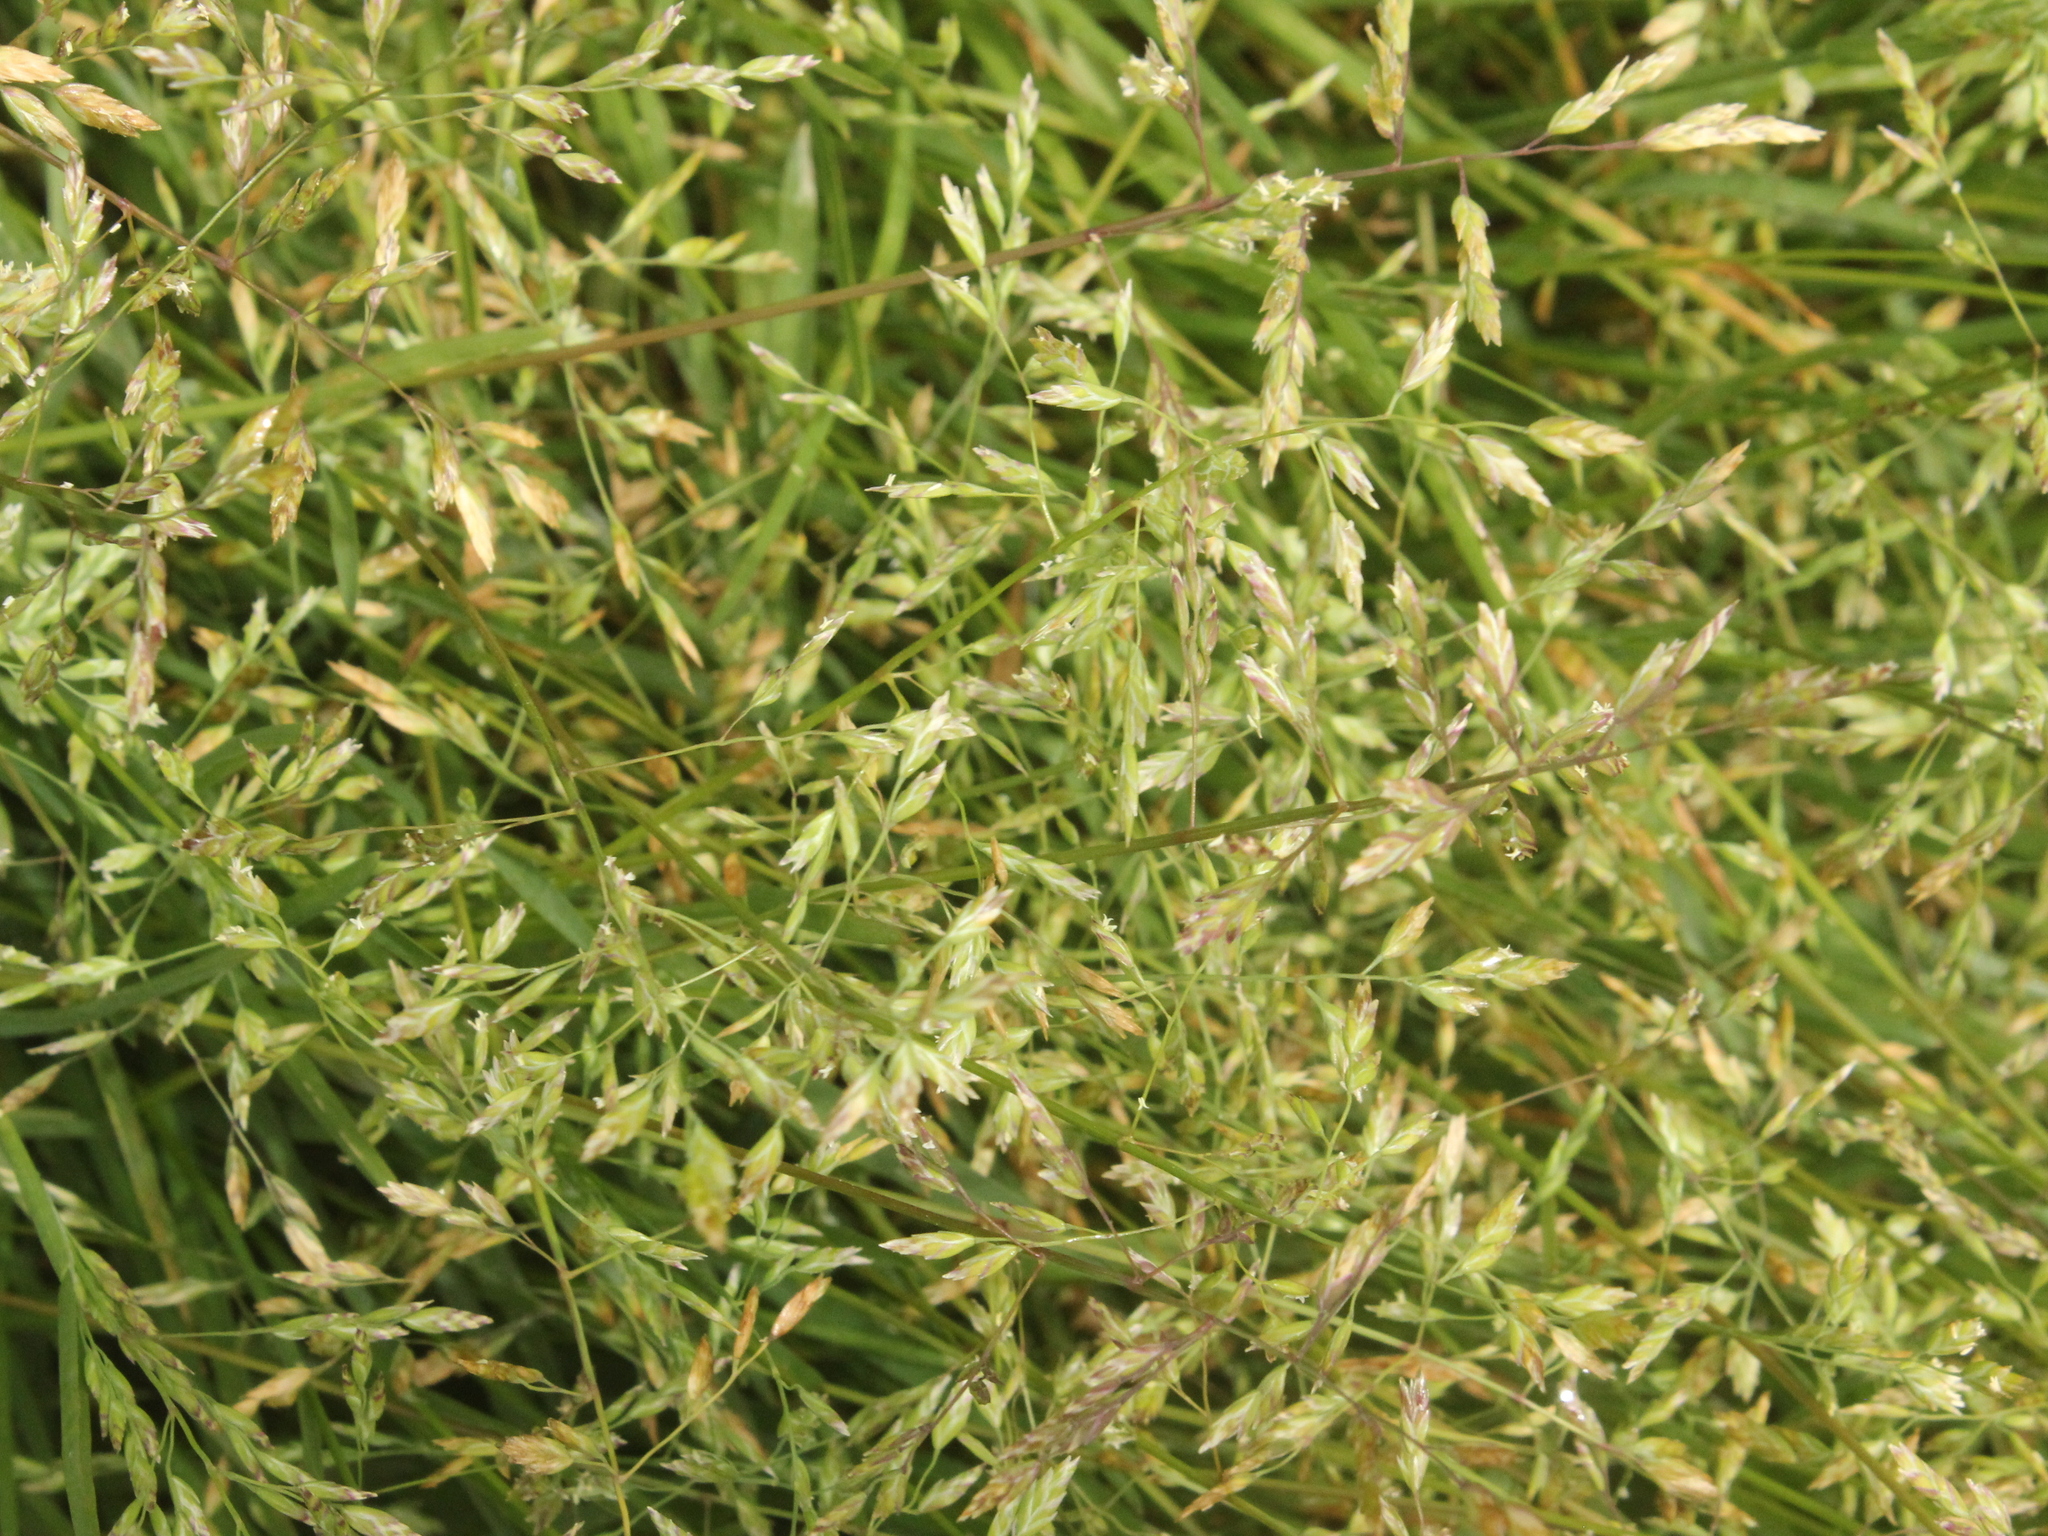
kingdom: Plantae
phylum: Tracheophyta
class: Liliopsida
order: Poales
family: Poaceae
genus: Poa
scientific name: Poa annua
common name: Annual bluegrass
